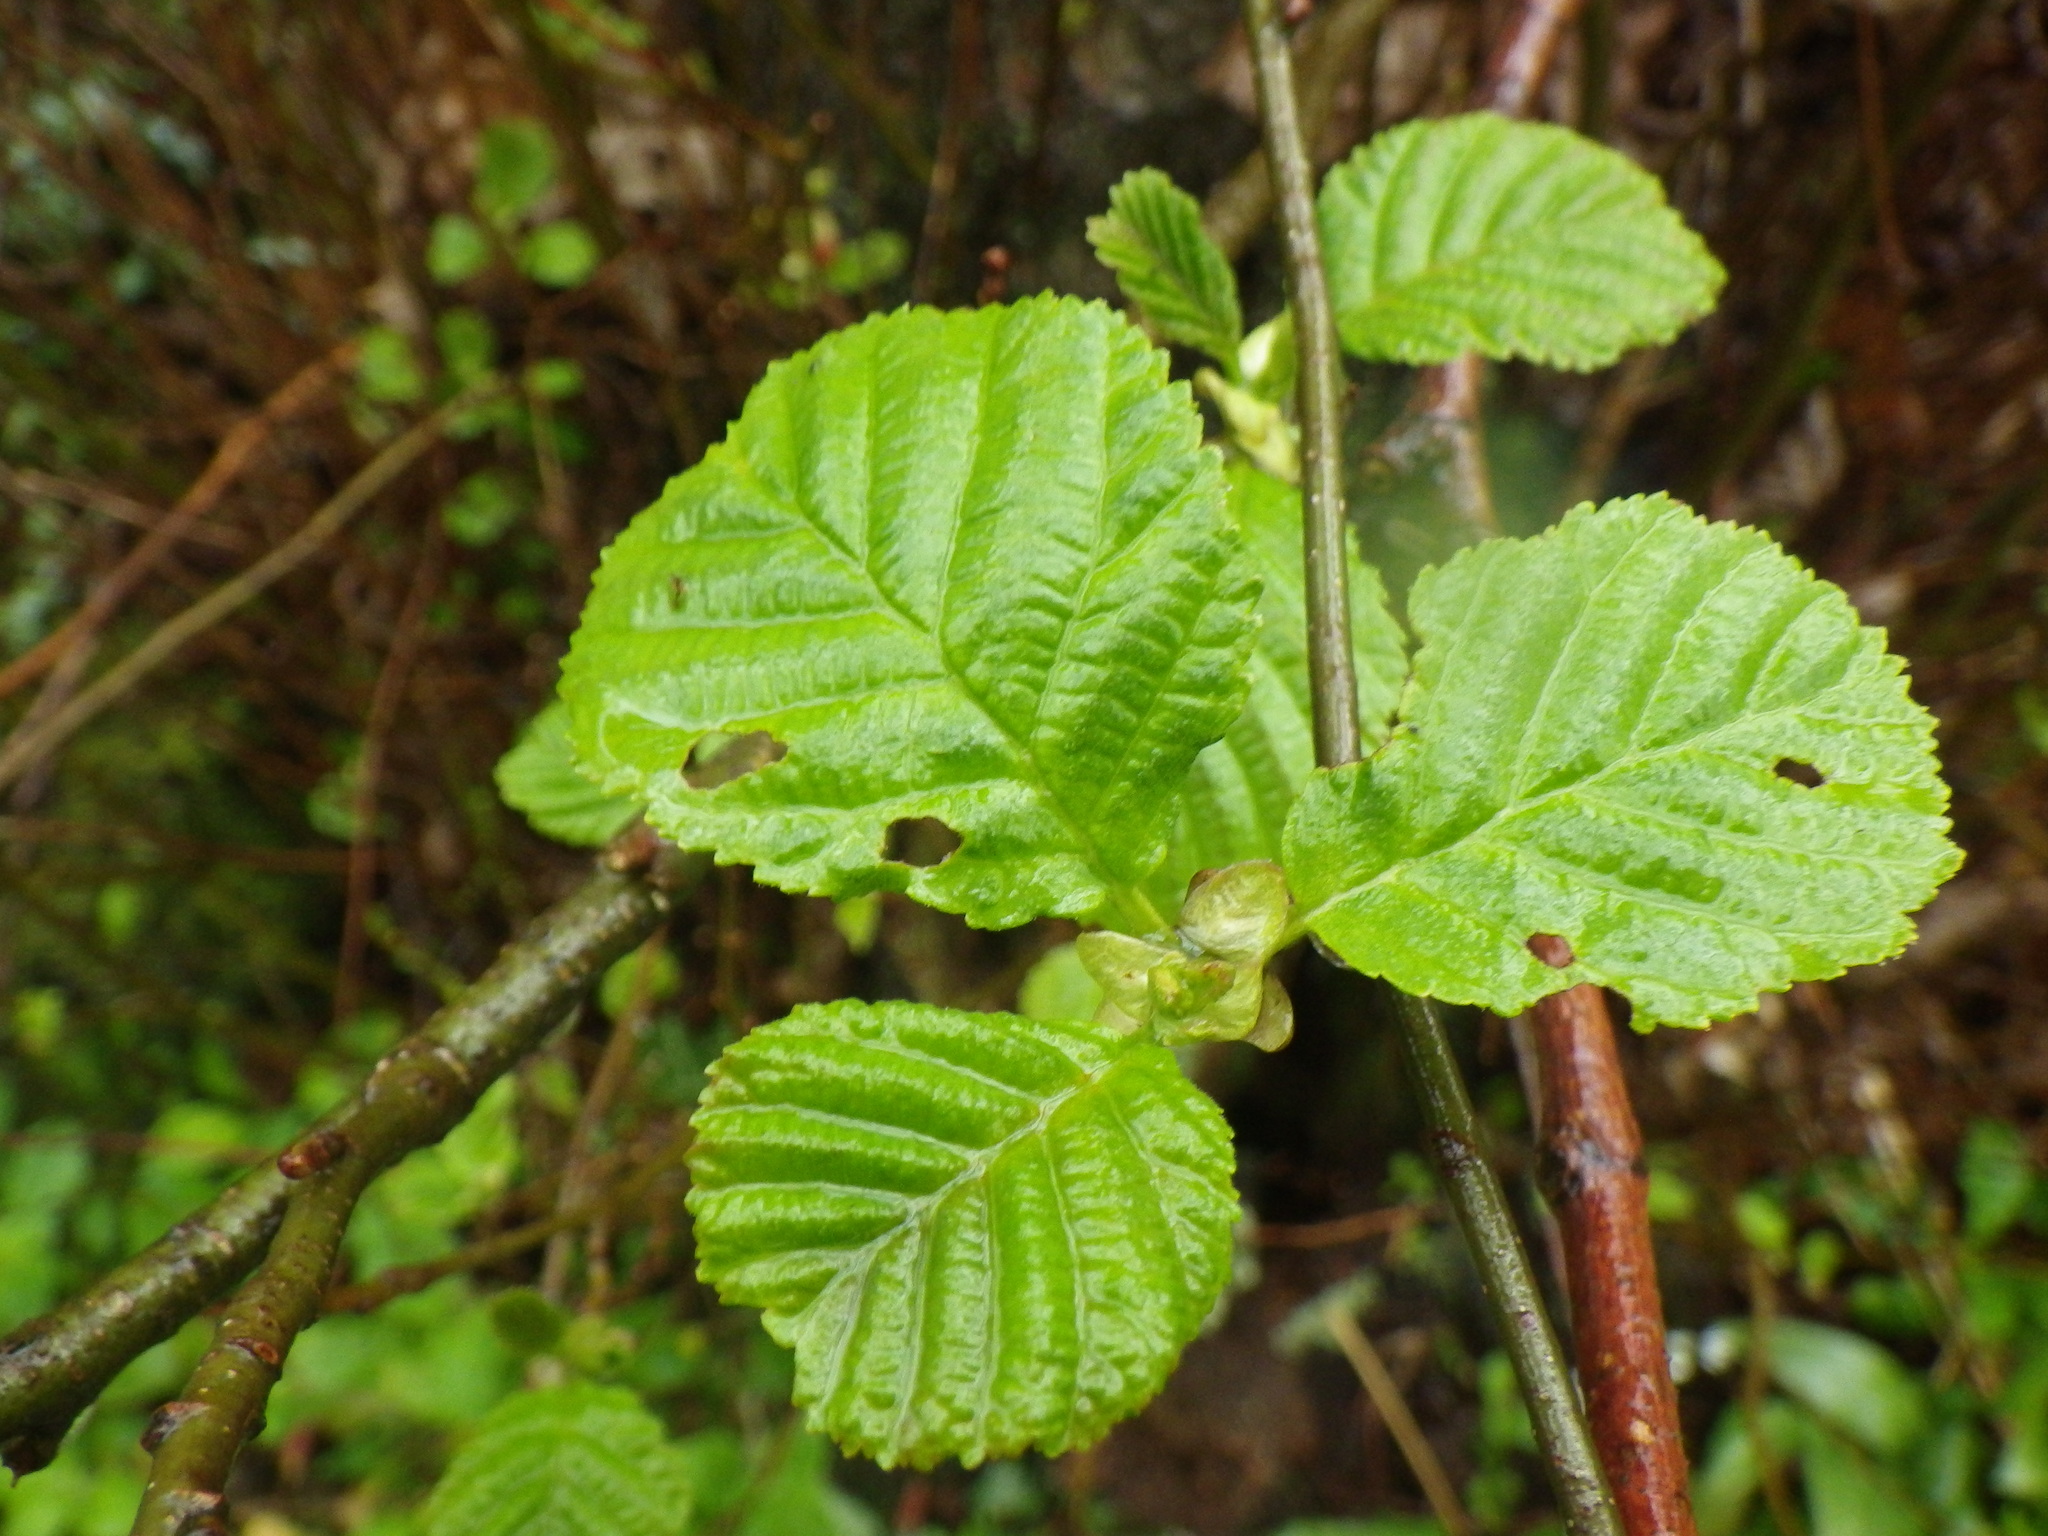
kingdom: Plantae
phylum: Tracheophyta
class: Magnoliopsida
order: Fagales
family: Betulaceae
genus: Alnus
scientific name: Alnus glutinosa
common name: Black alder
